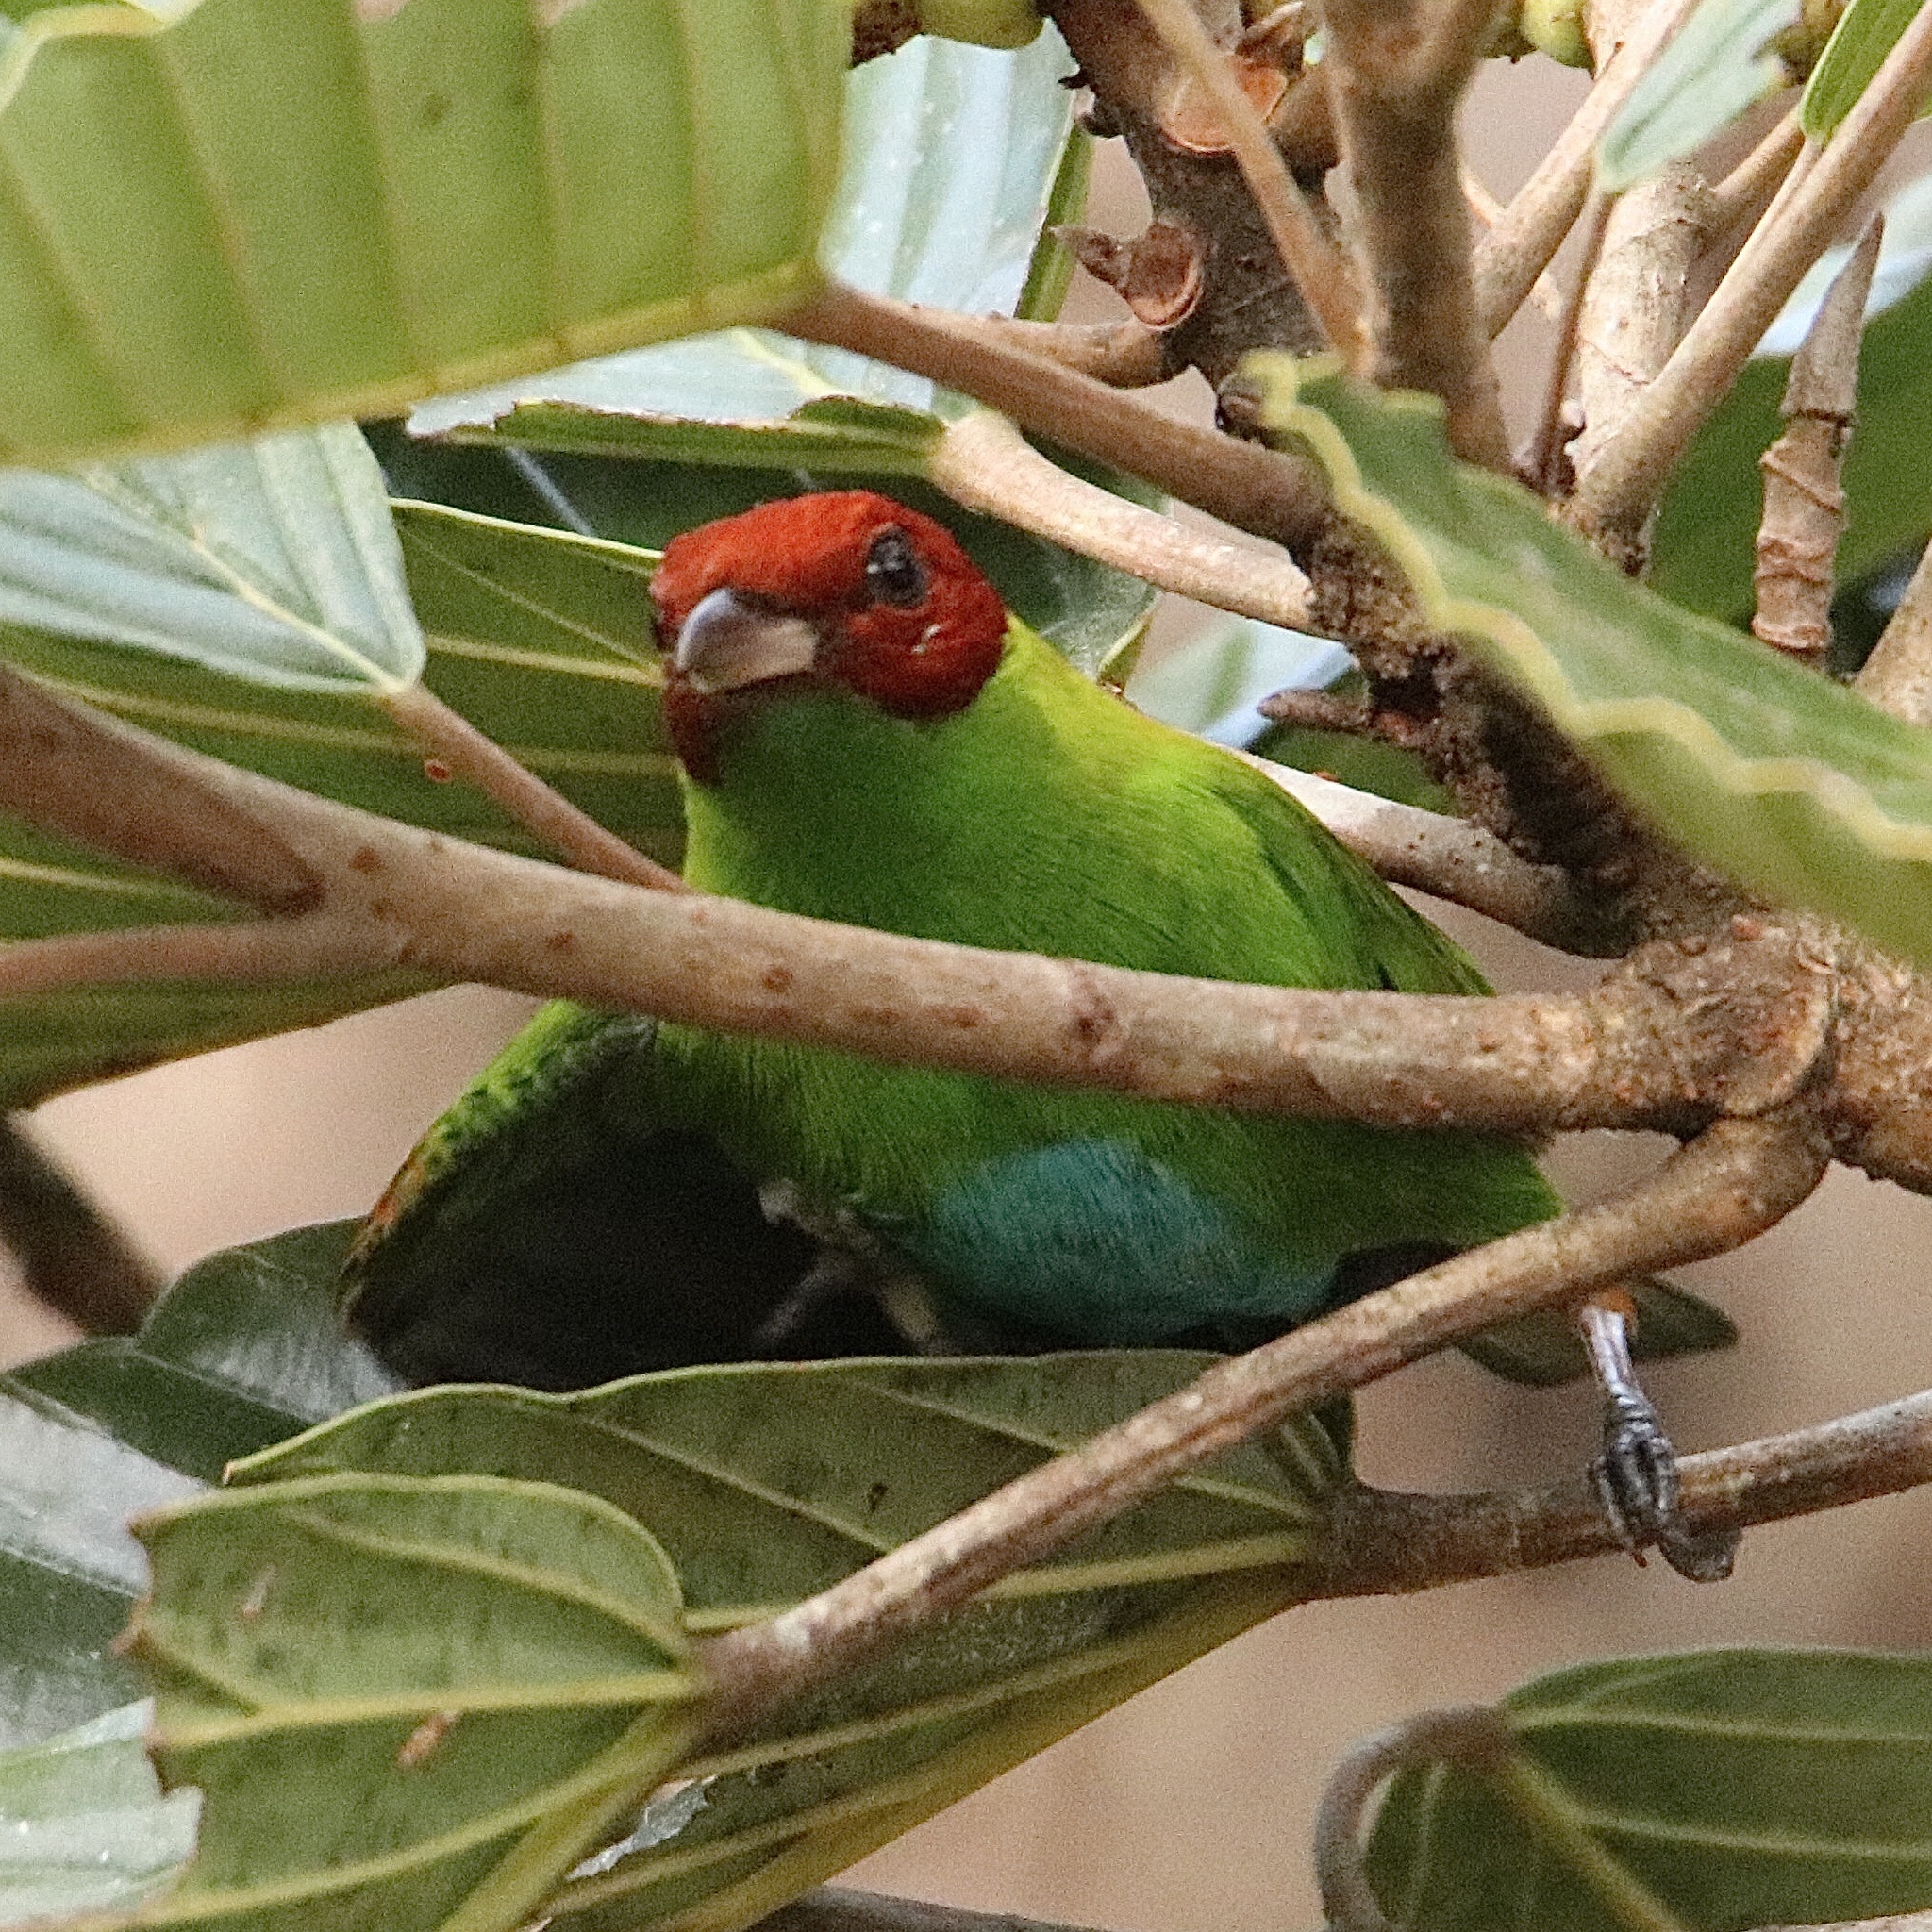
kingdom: Animalia
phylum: Chordata
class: Aves
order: Passeriformes
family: Thraupidae
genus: Tangara
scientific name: Tangara lavinia
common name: Rufous-winged tanager
